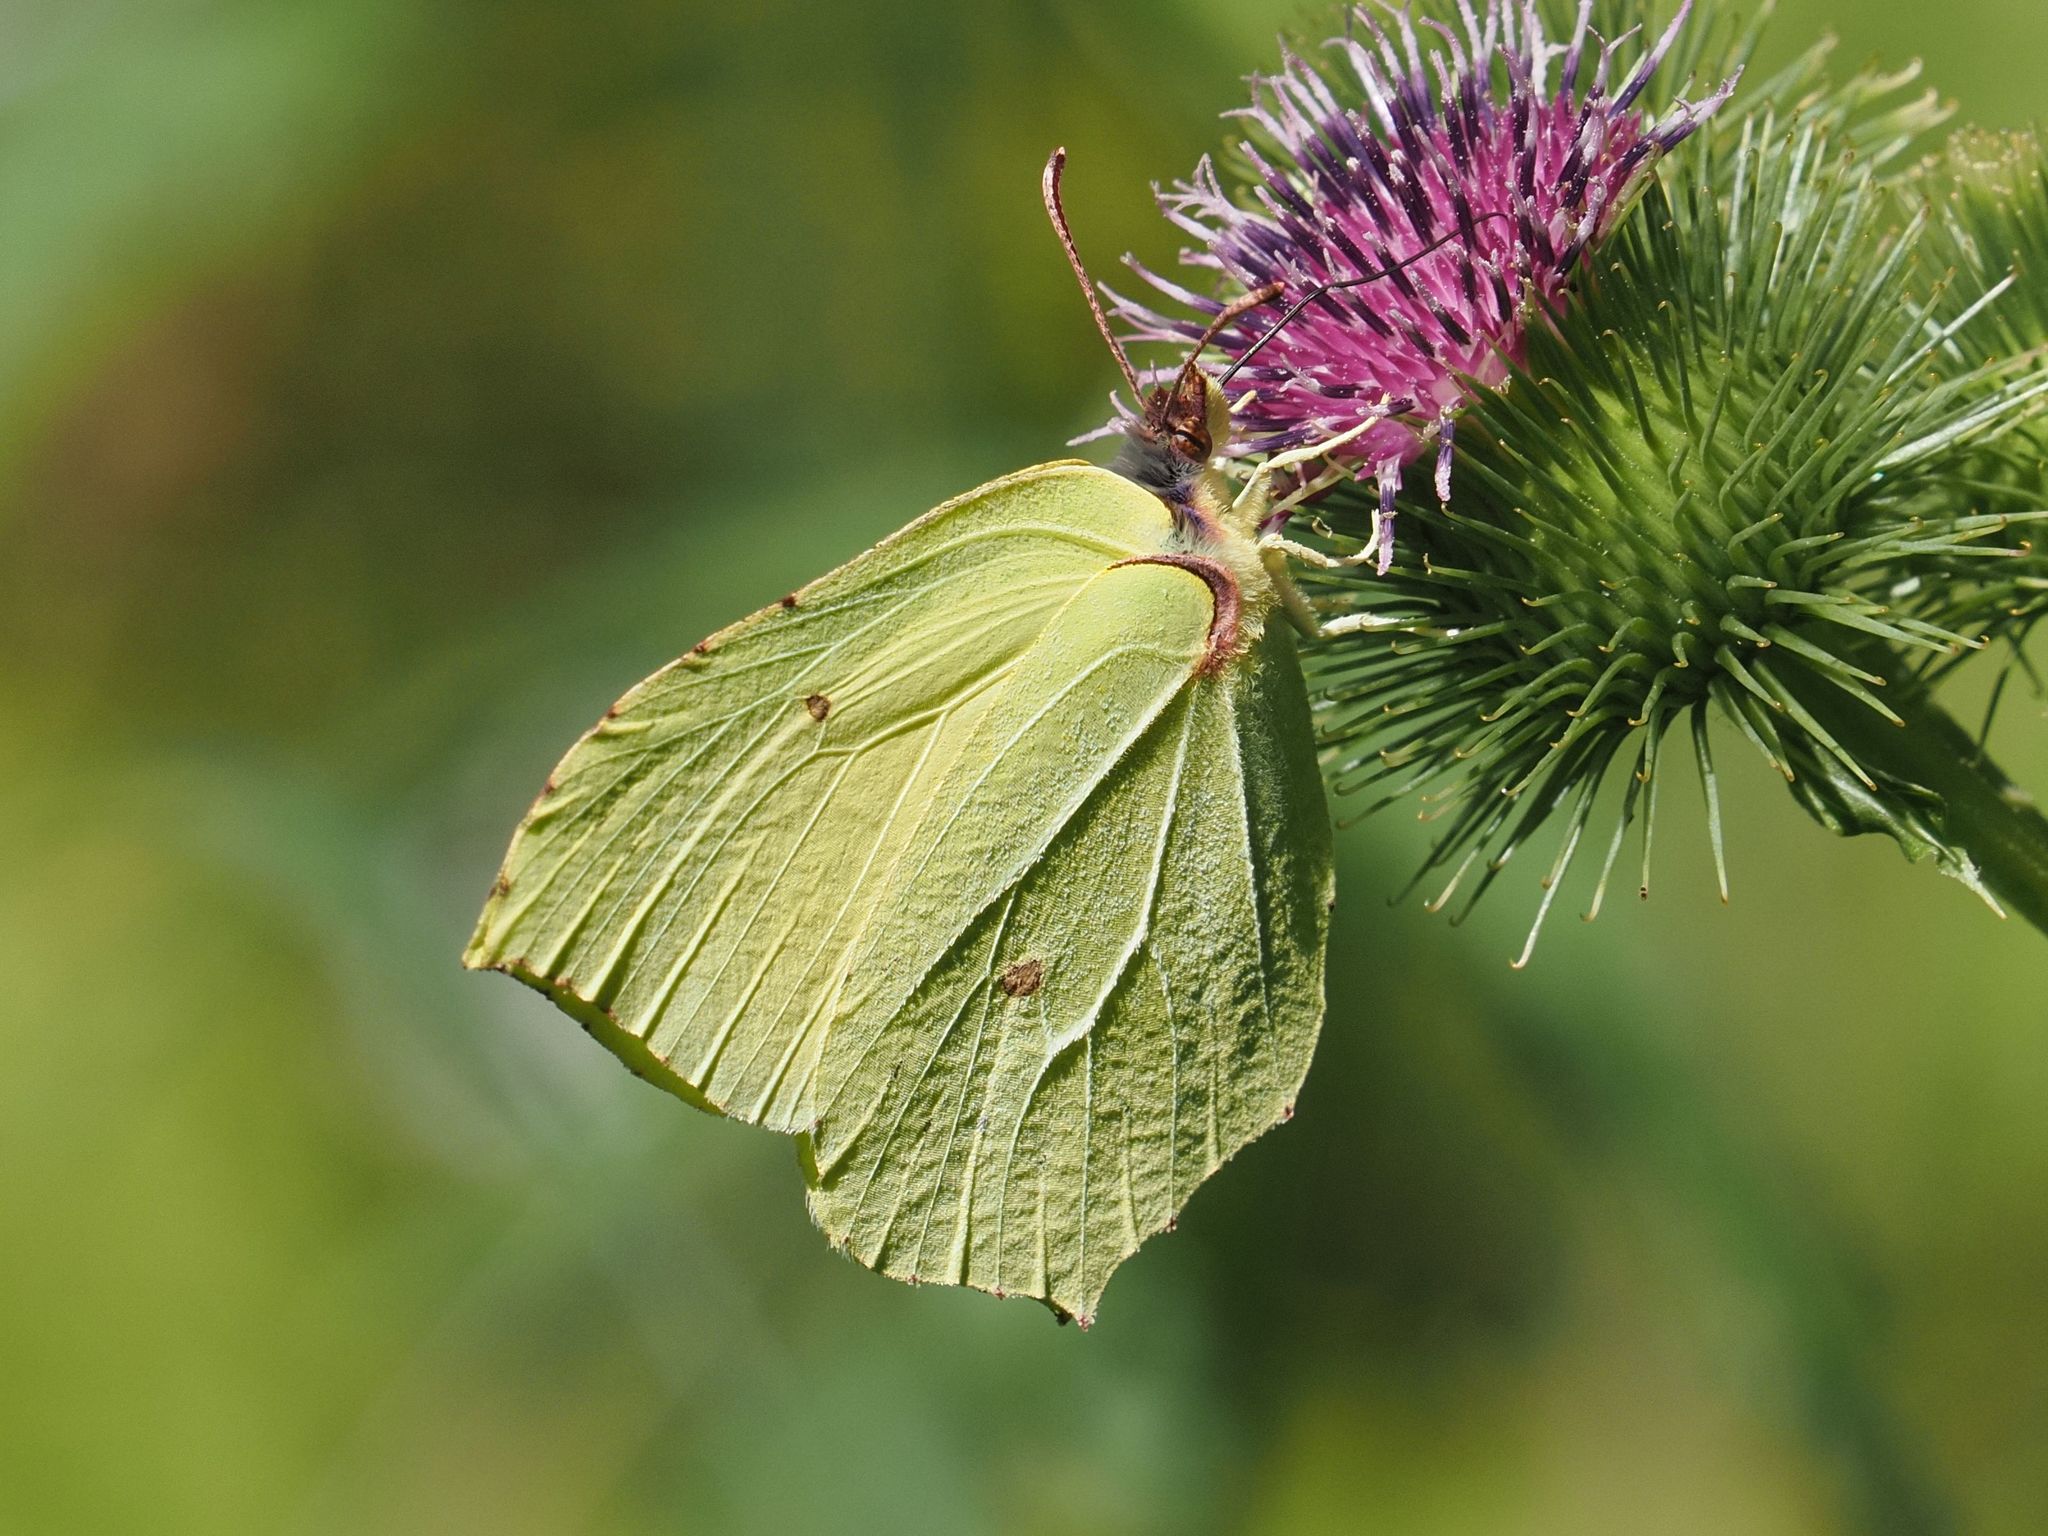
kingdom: Animalia
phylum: Arthropoda
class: Insecta
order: Lepidoptera
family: Pieridae
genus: Gonepteryx
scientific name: Gonepteryx rhamni
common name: Brimstone
